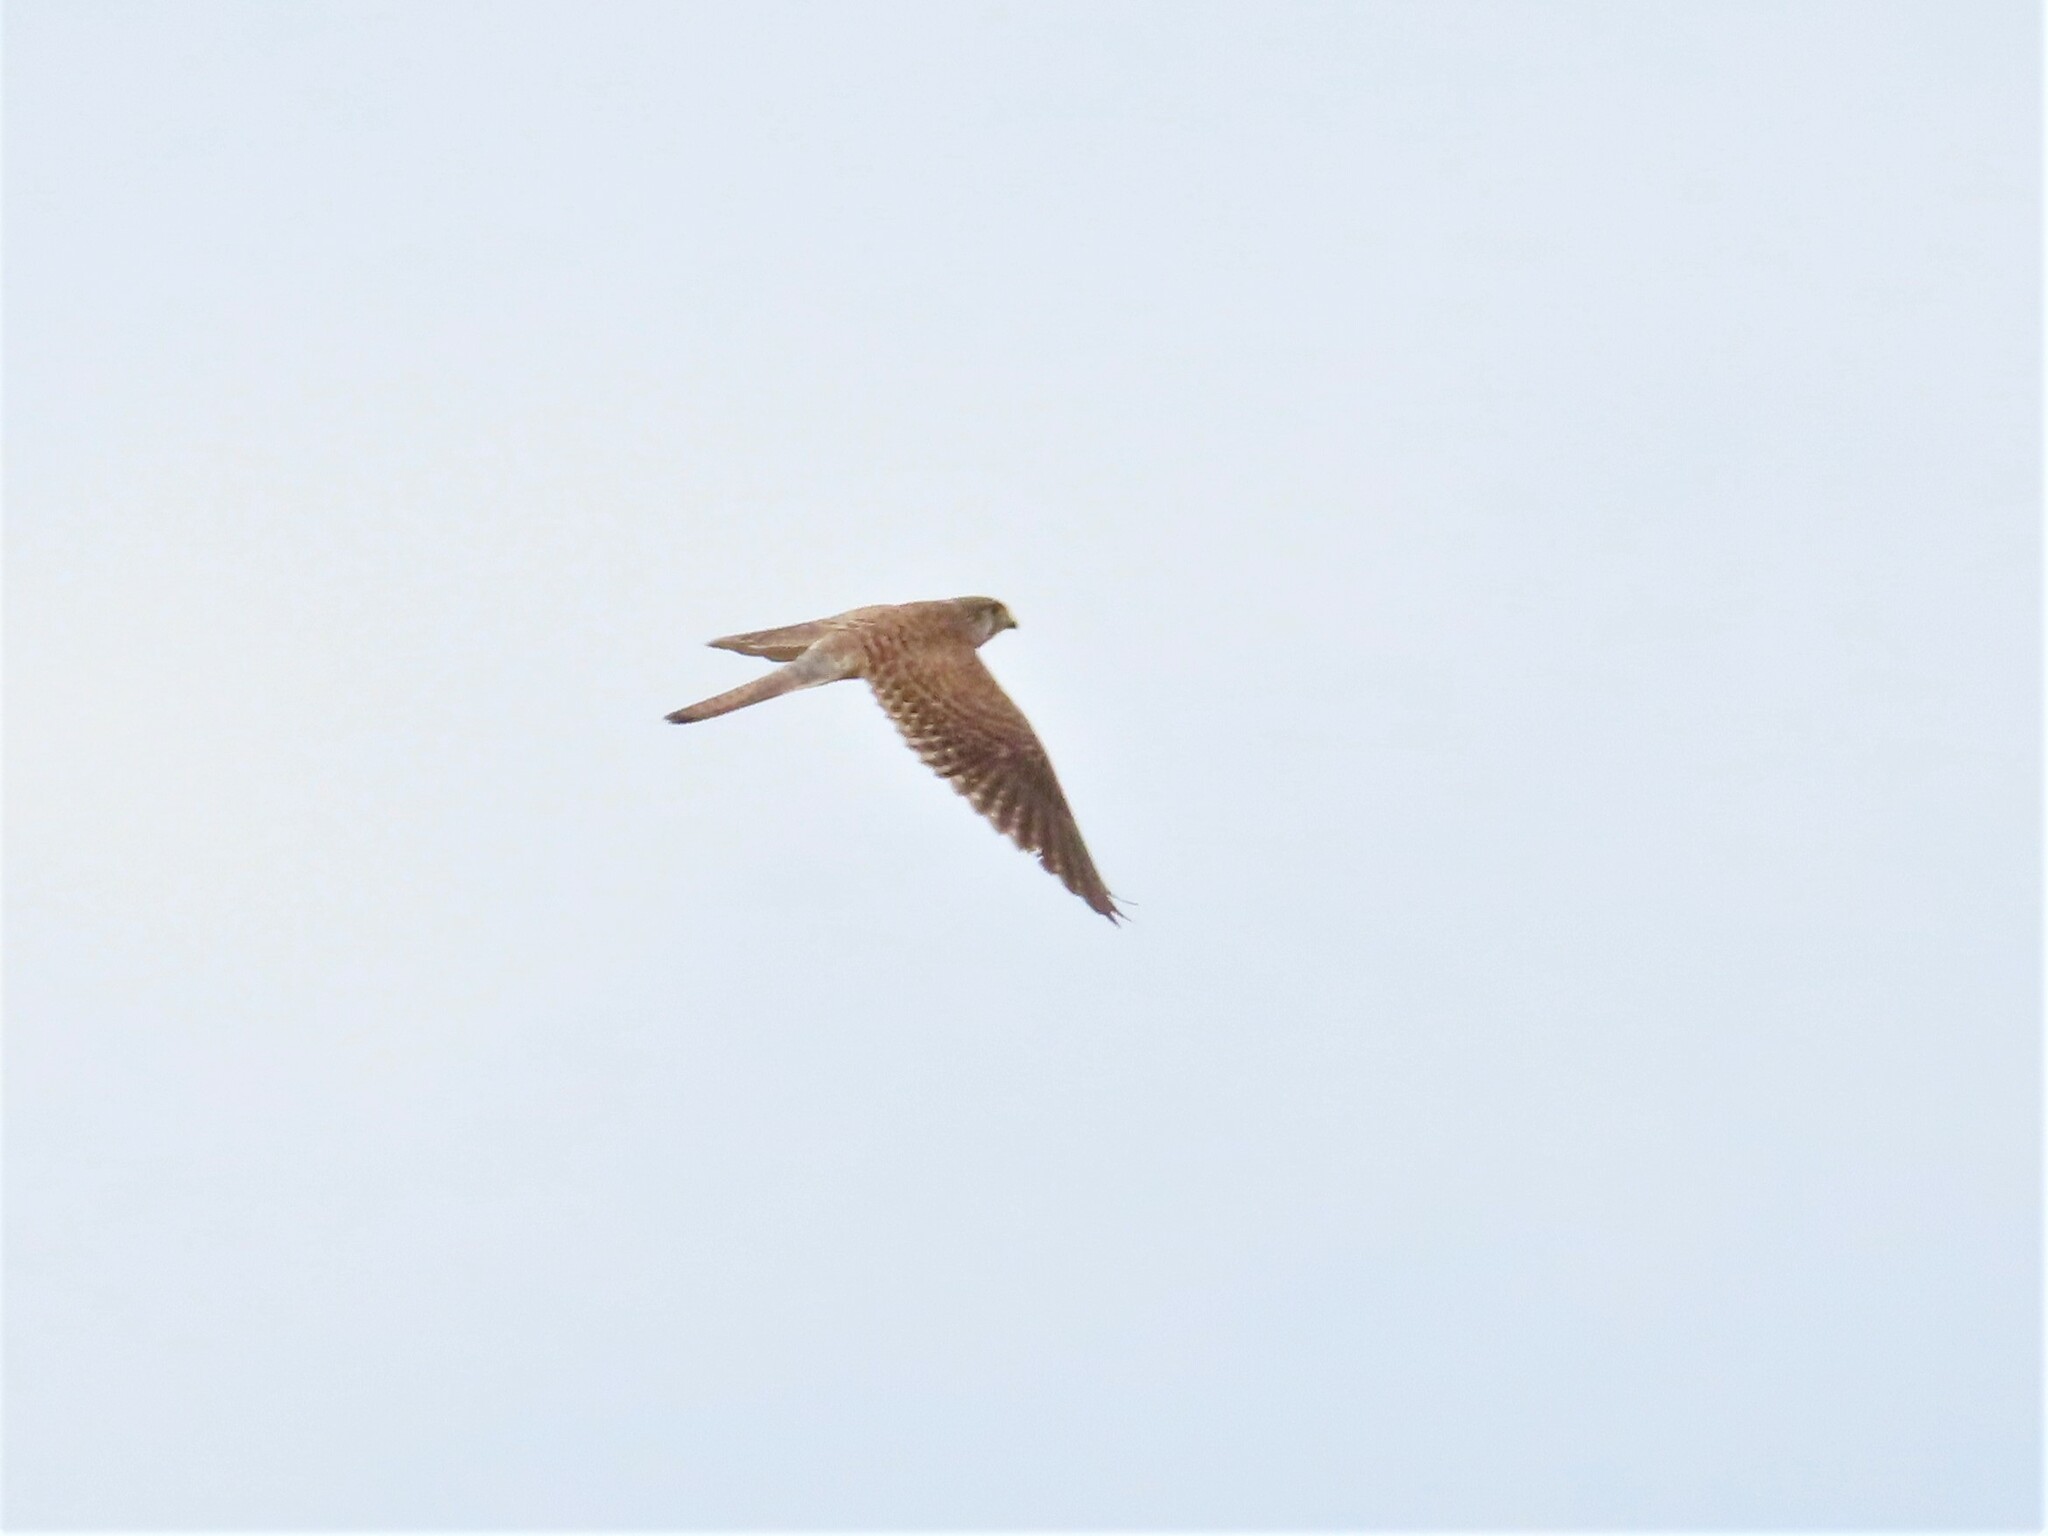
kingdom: Animalia
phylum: Chordata
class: Aves
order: Falconiformes
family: Falconidae
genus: Falco
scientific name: Falco tinnunculus
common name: Common kestrel
